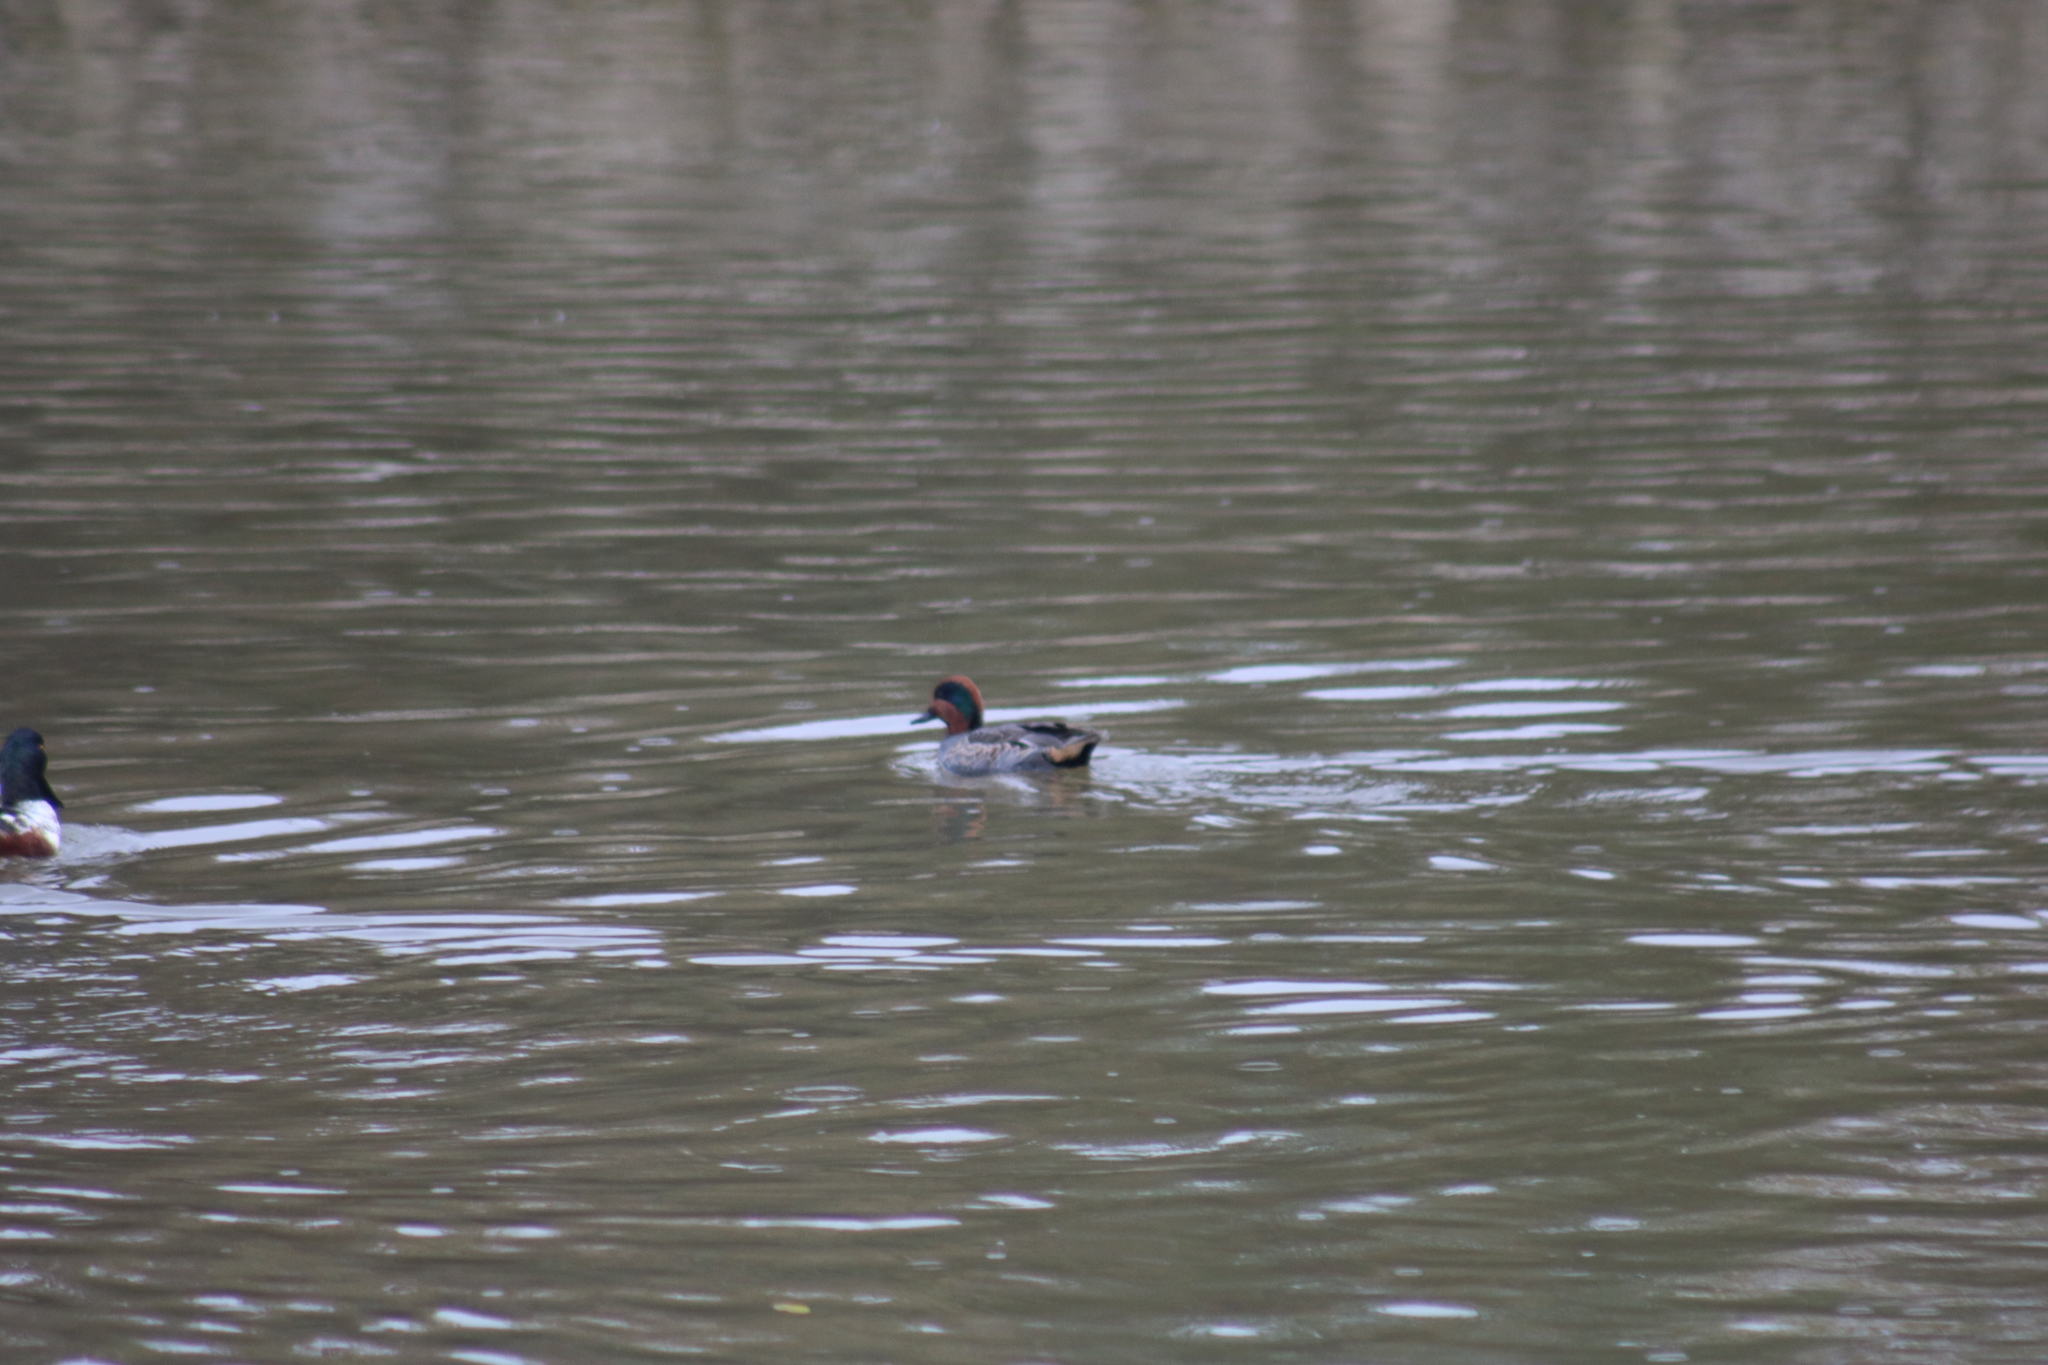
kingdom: Animalia
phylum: Chordata
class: Aves
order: Anseriformes
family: Anatidae
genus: Anas
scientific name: Anas crecca
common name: Eurasian teal
